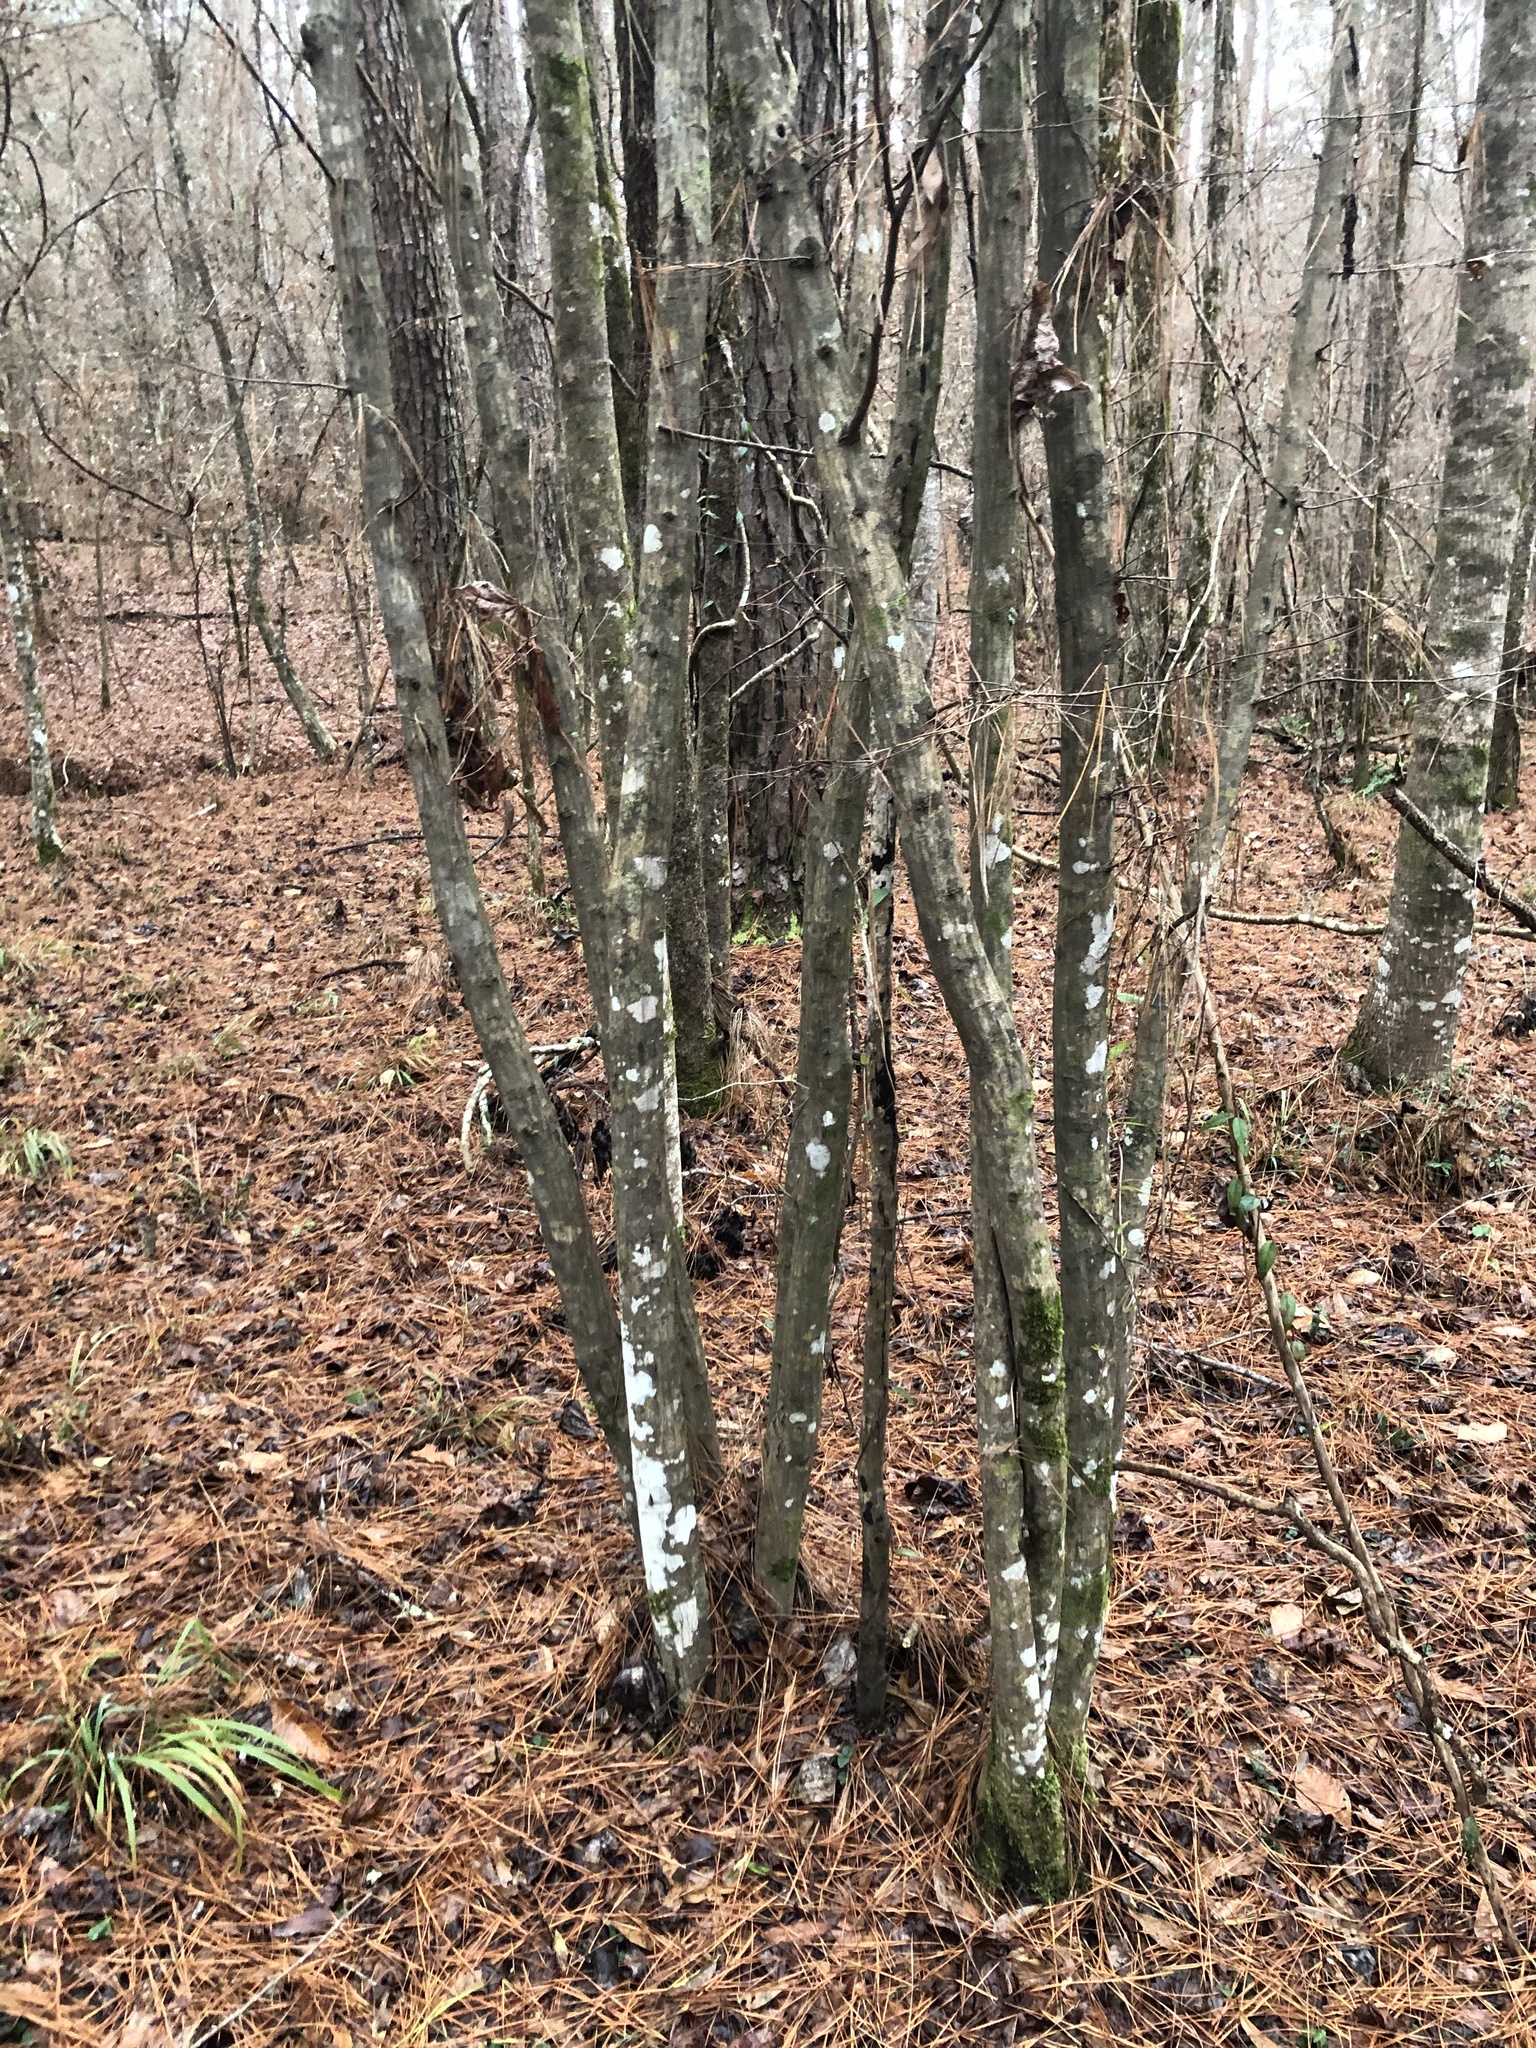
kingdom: Plantae
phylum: Tracheophyta
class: Magnoliopsida
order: Fagales
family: Betulaceae
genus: Carpinus
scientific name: Carpinus caroliniana
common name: American hornbeam
